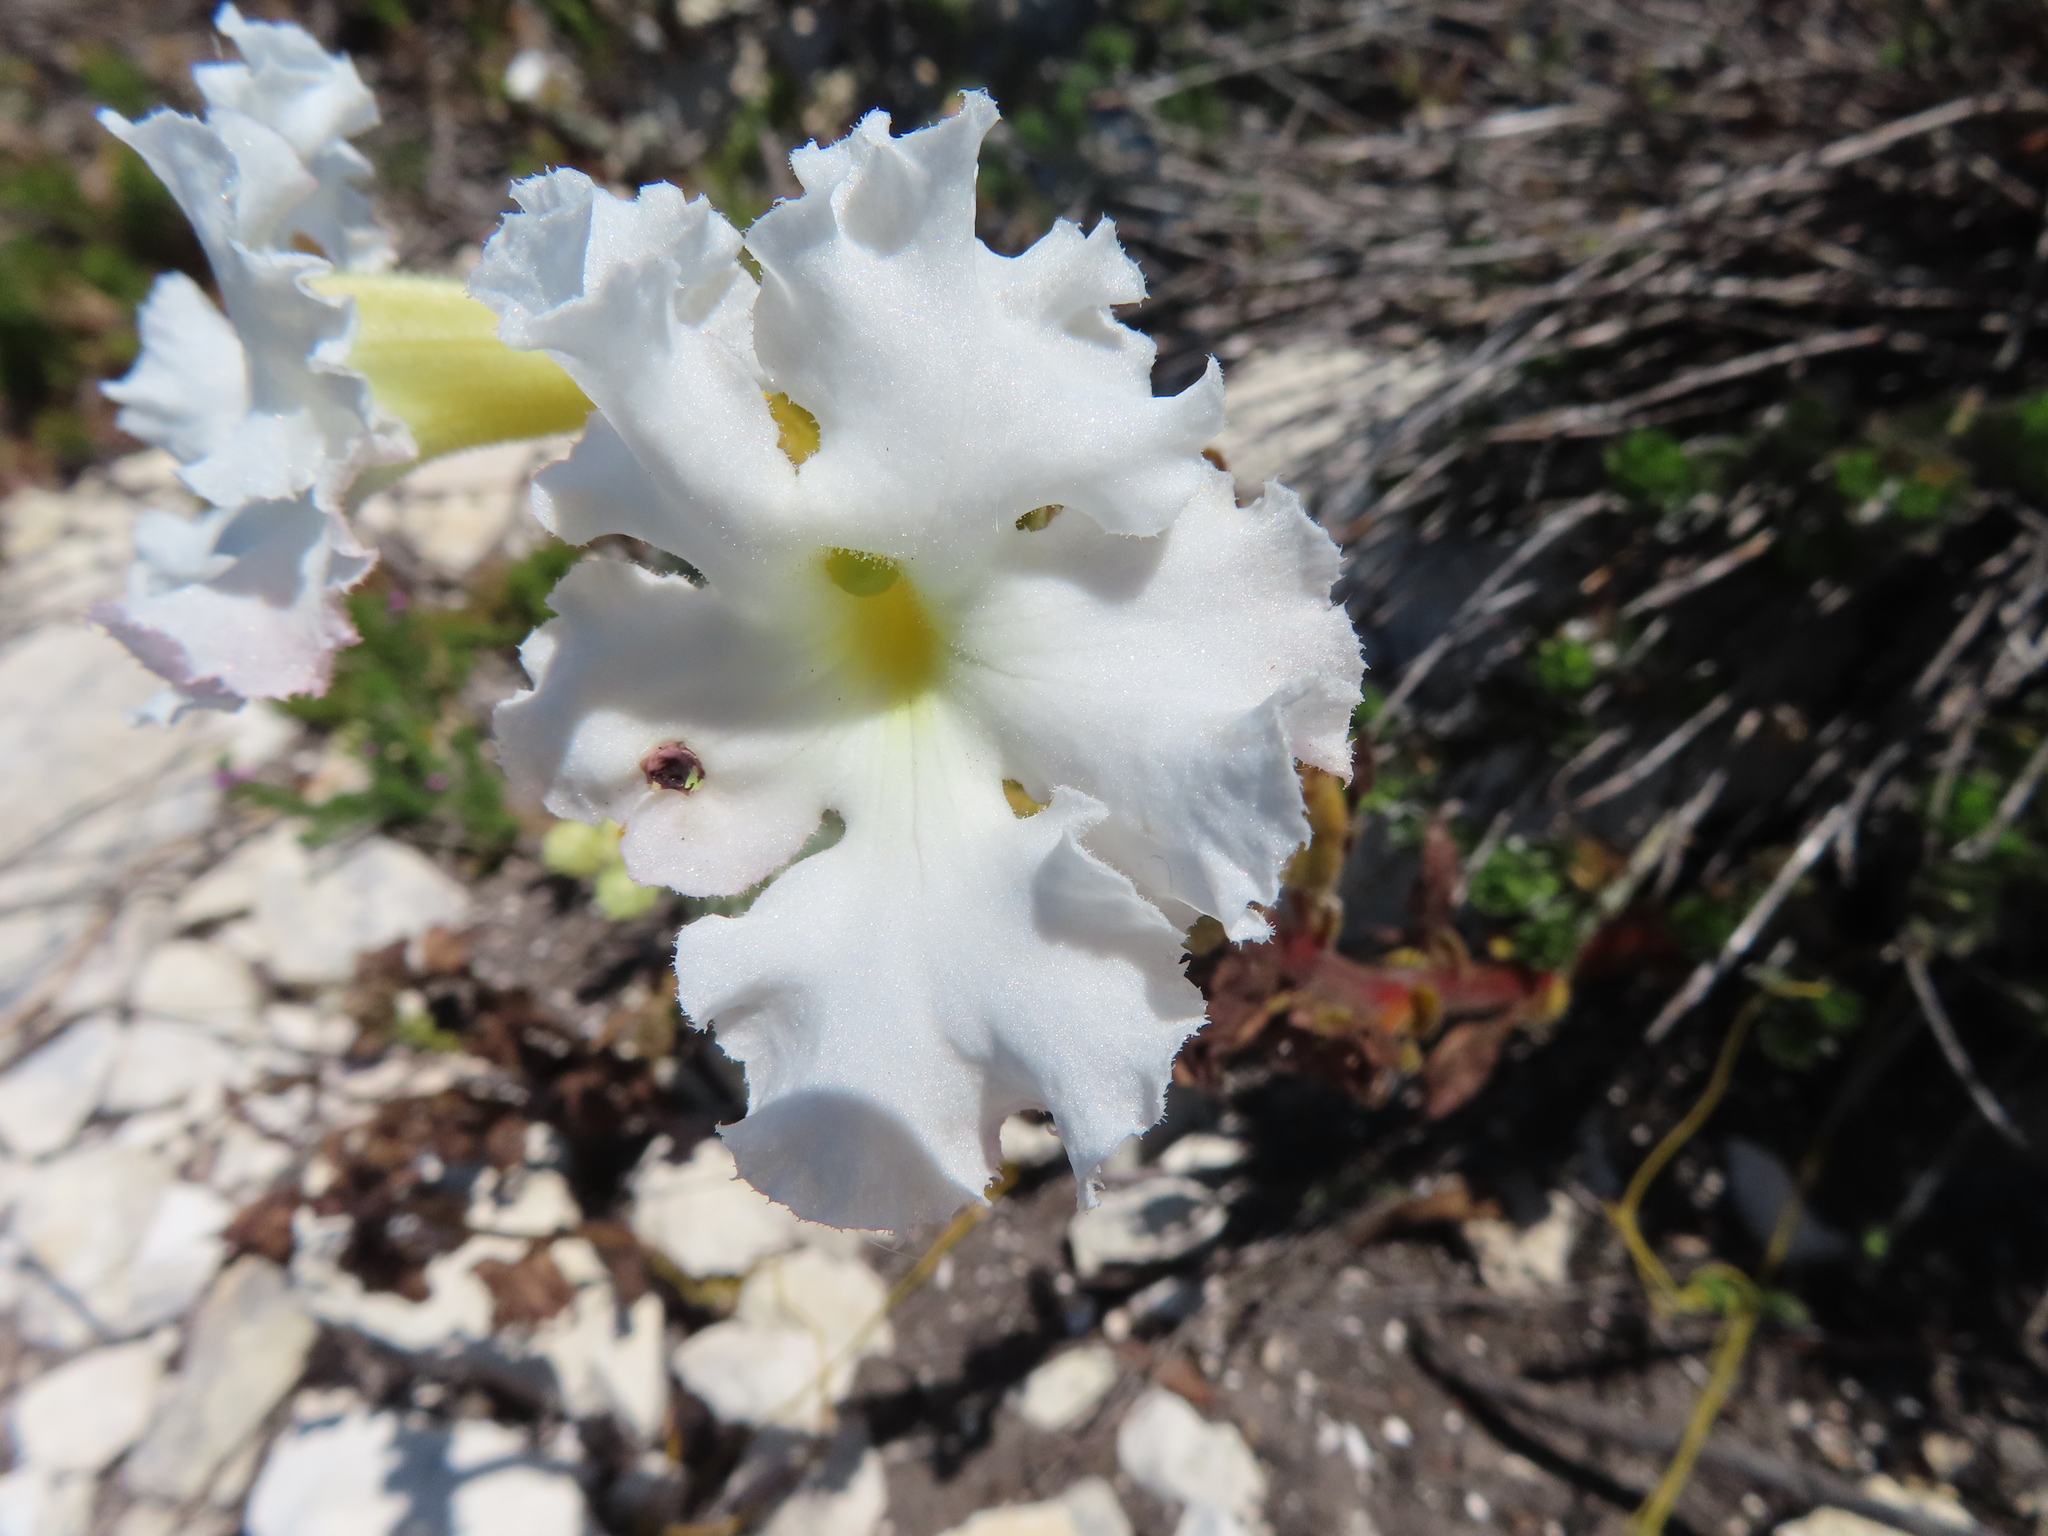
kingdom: Plantae
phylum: Tracheophyta
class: Magnoliopsida
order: Lamiales
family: Orobanchaceae
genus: Harveya
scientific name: Harveya capensis
